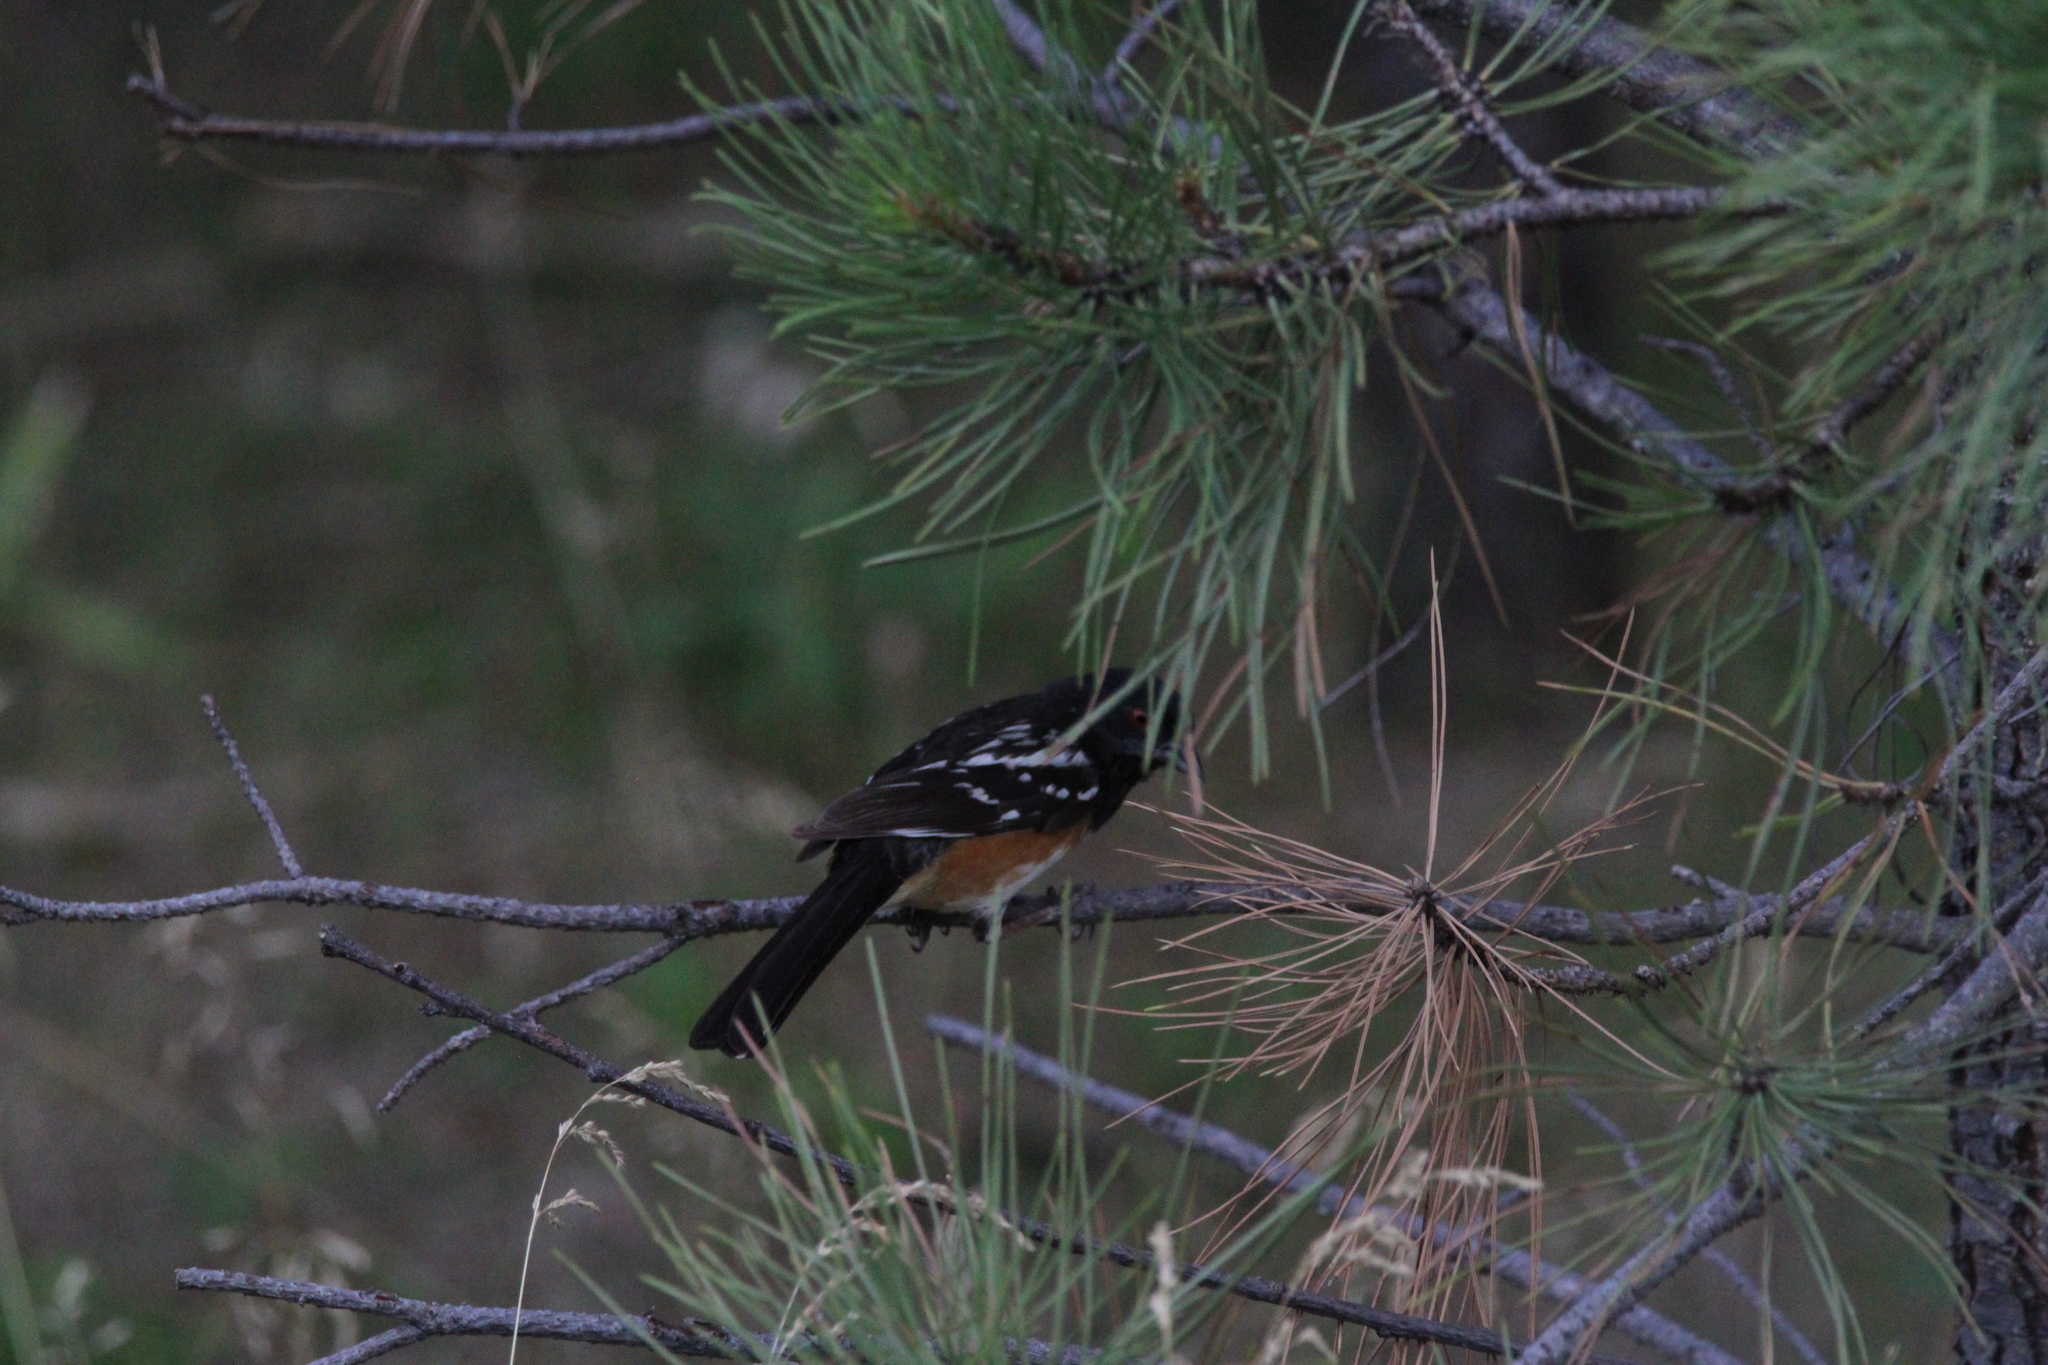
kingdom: Animalia
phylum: Chordata
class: Aves
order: Passeriformes
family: Passerellidae
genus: Pipilo
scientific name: Pipilo maculatus
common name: Spotted towhee
